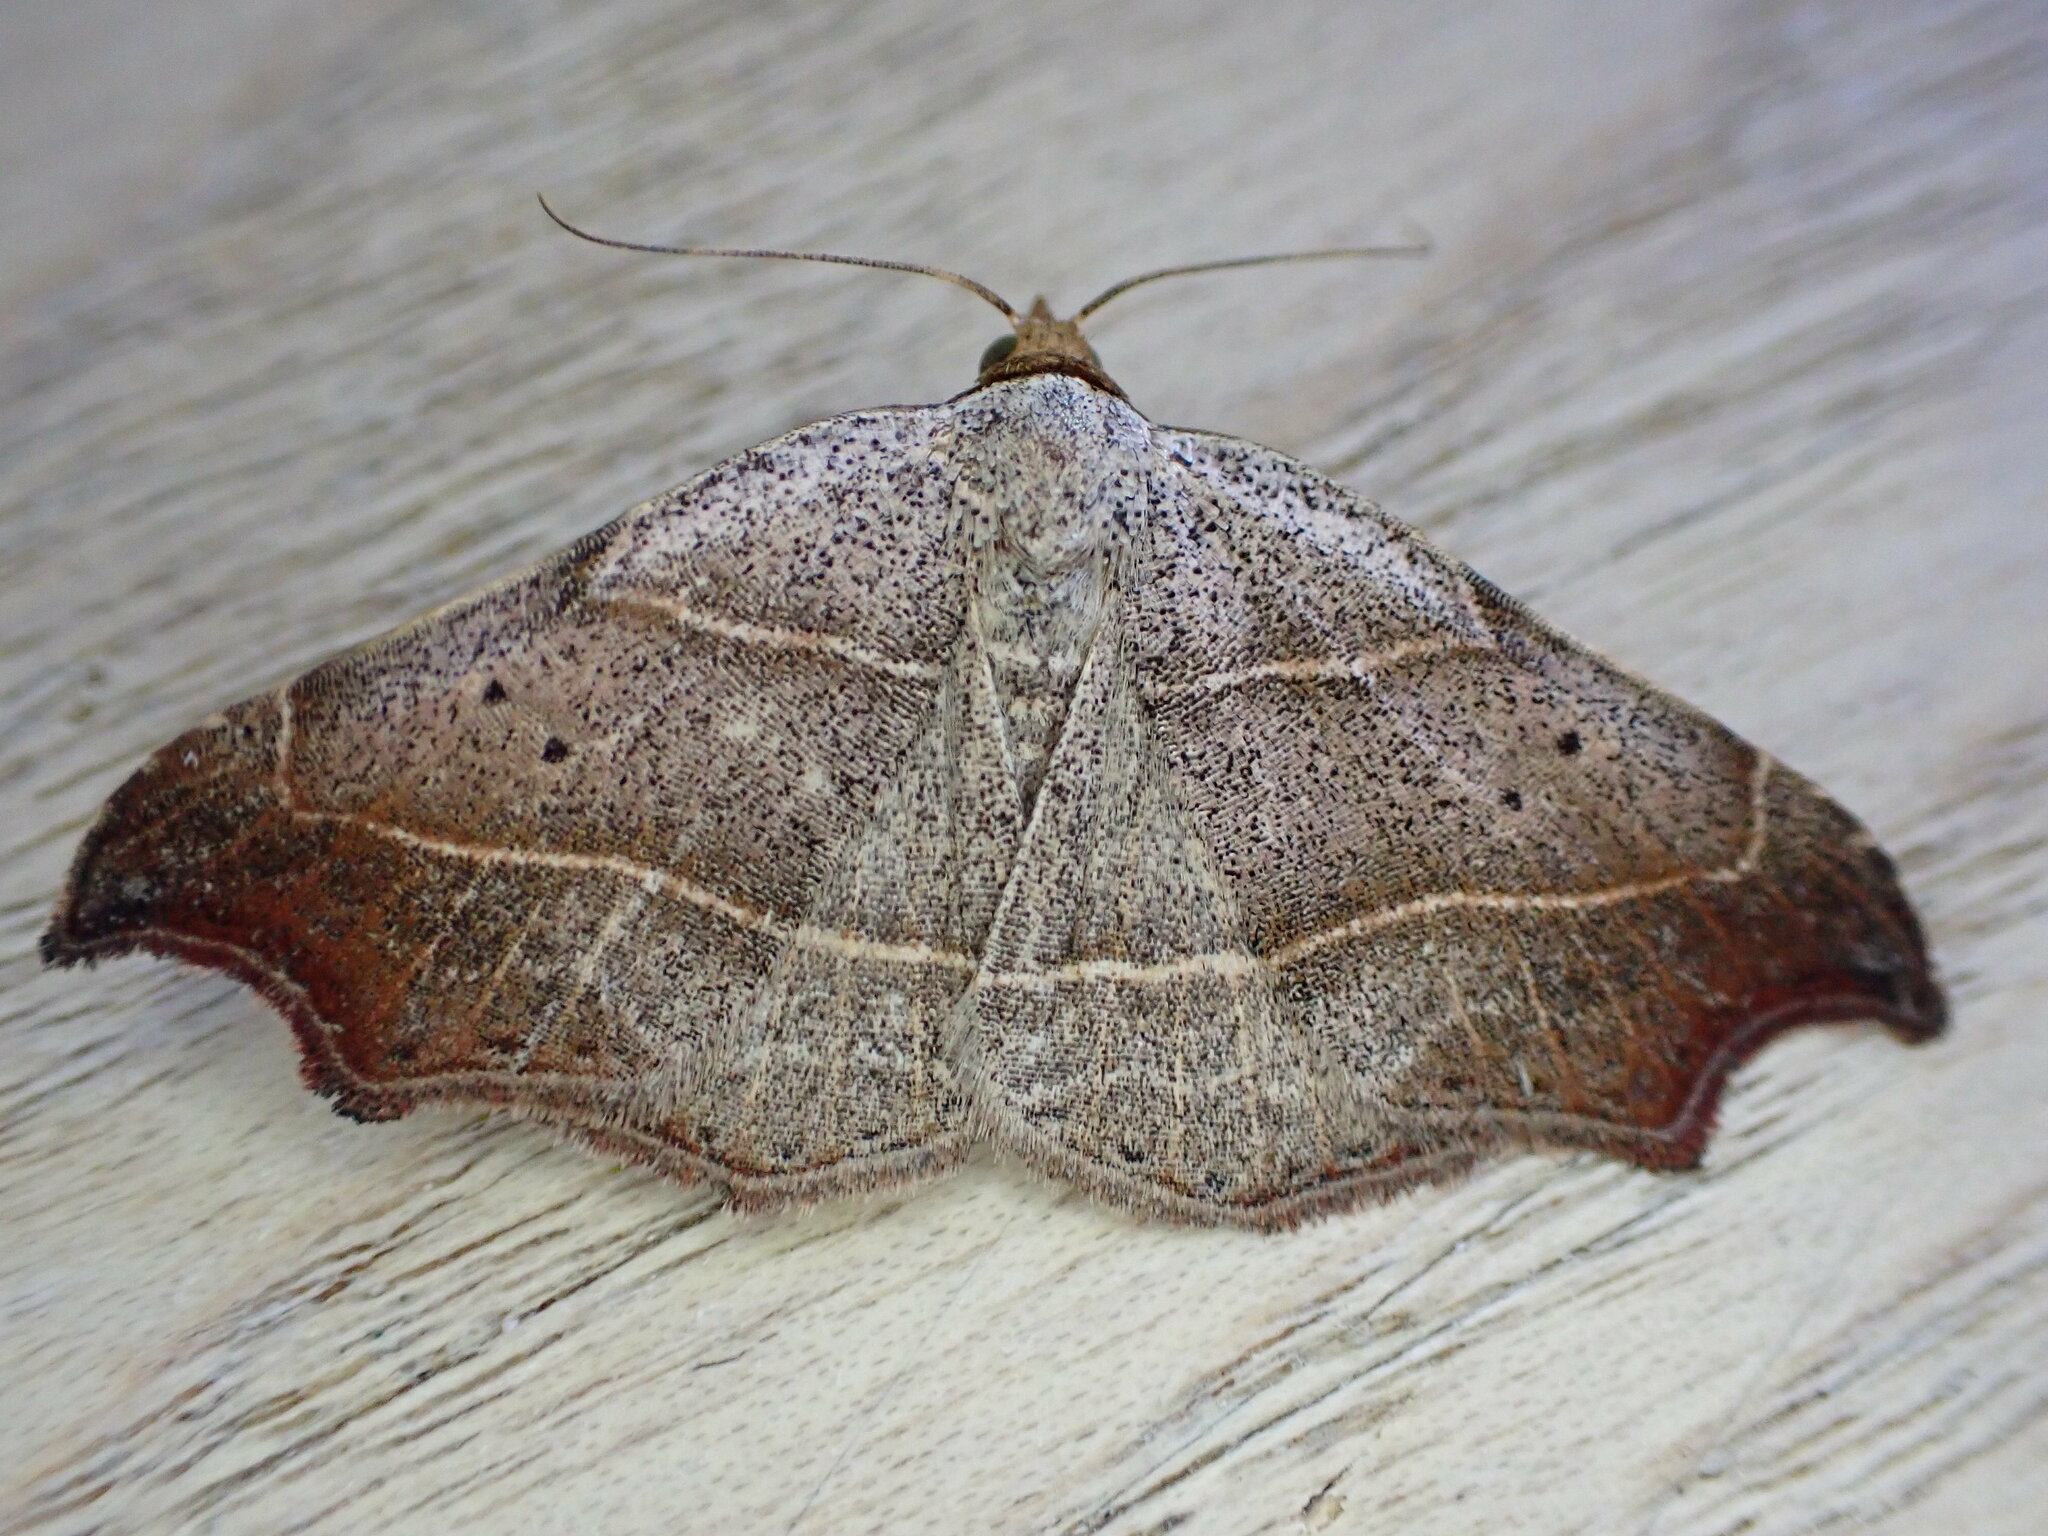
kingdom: Animalia
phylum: Arthropoda
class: Insecta
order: Lepidoptera
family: Erebidae
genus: Laspeyria
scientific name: Laspeyria flexula
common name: Beautiful hook-tip
